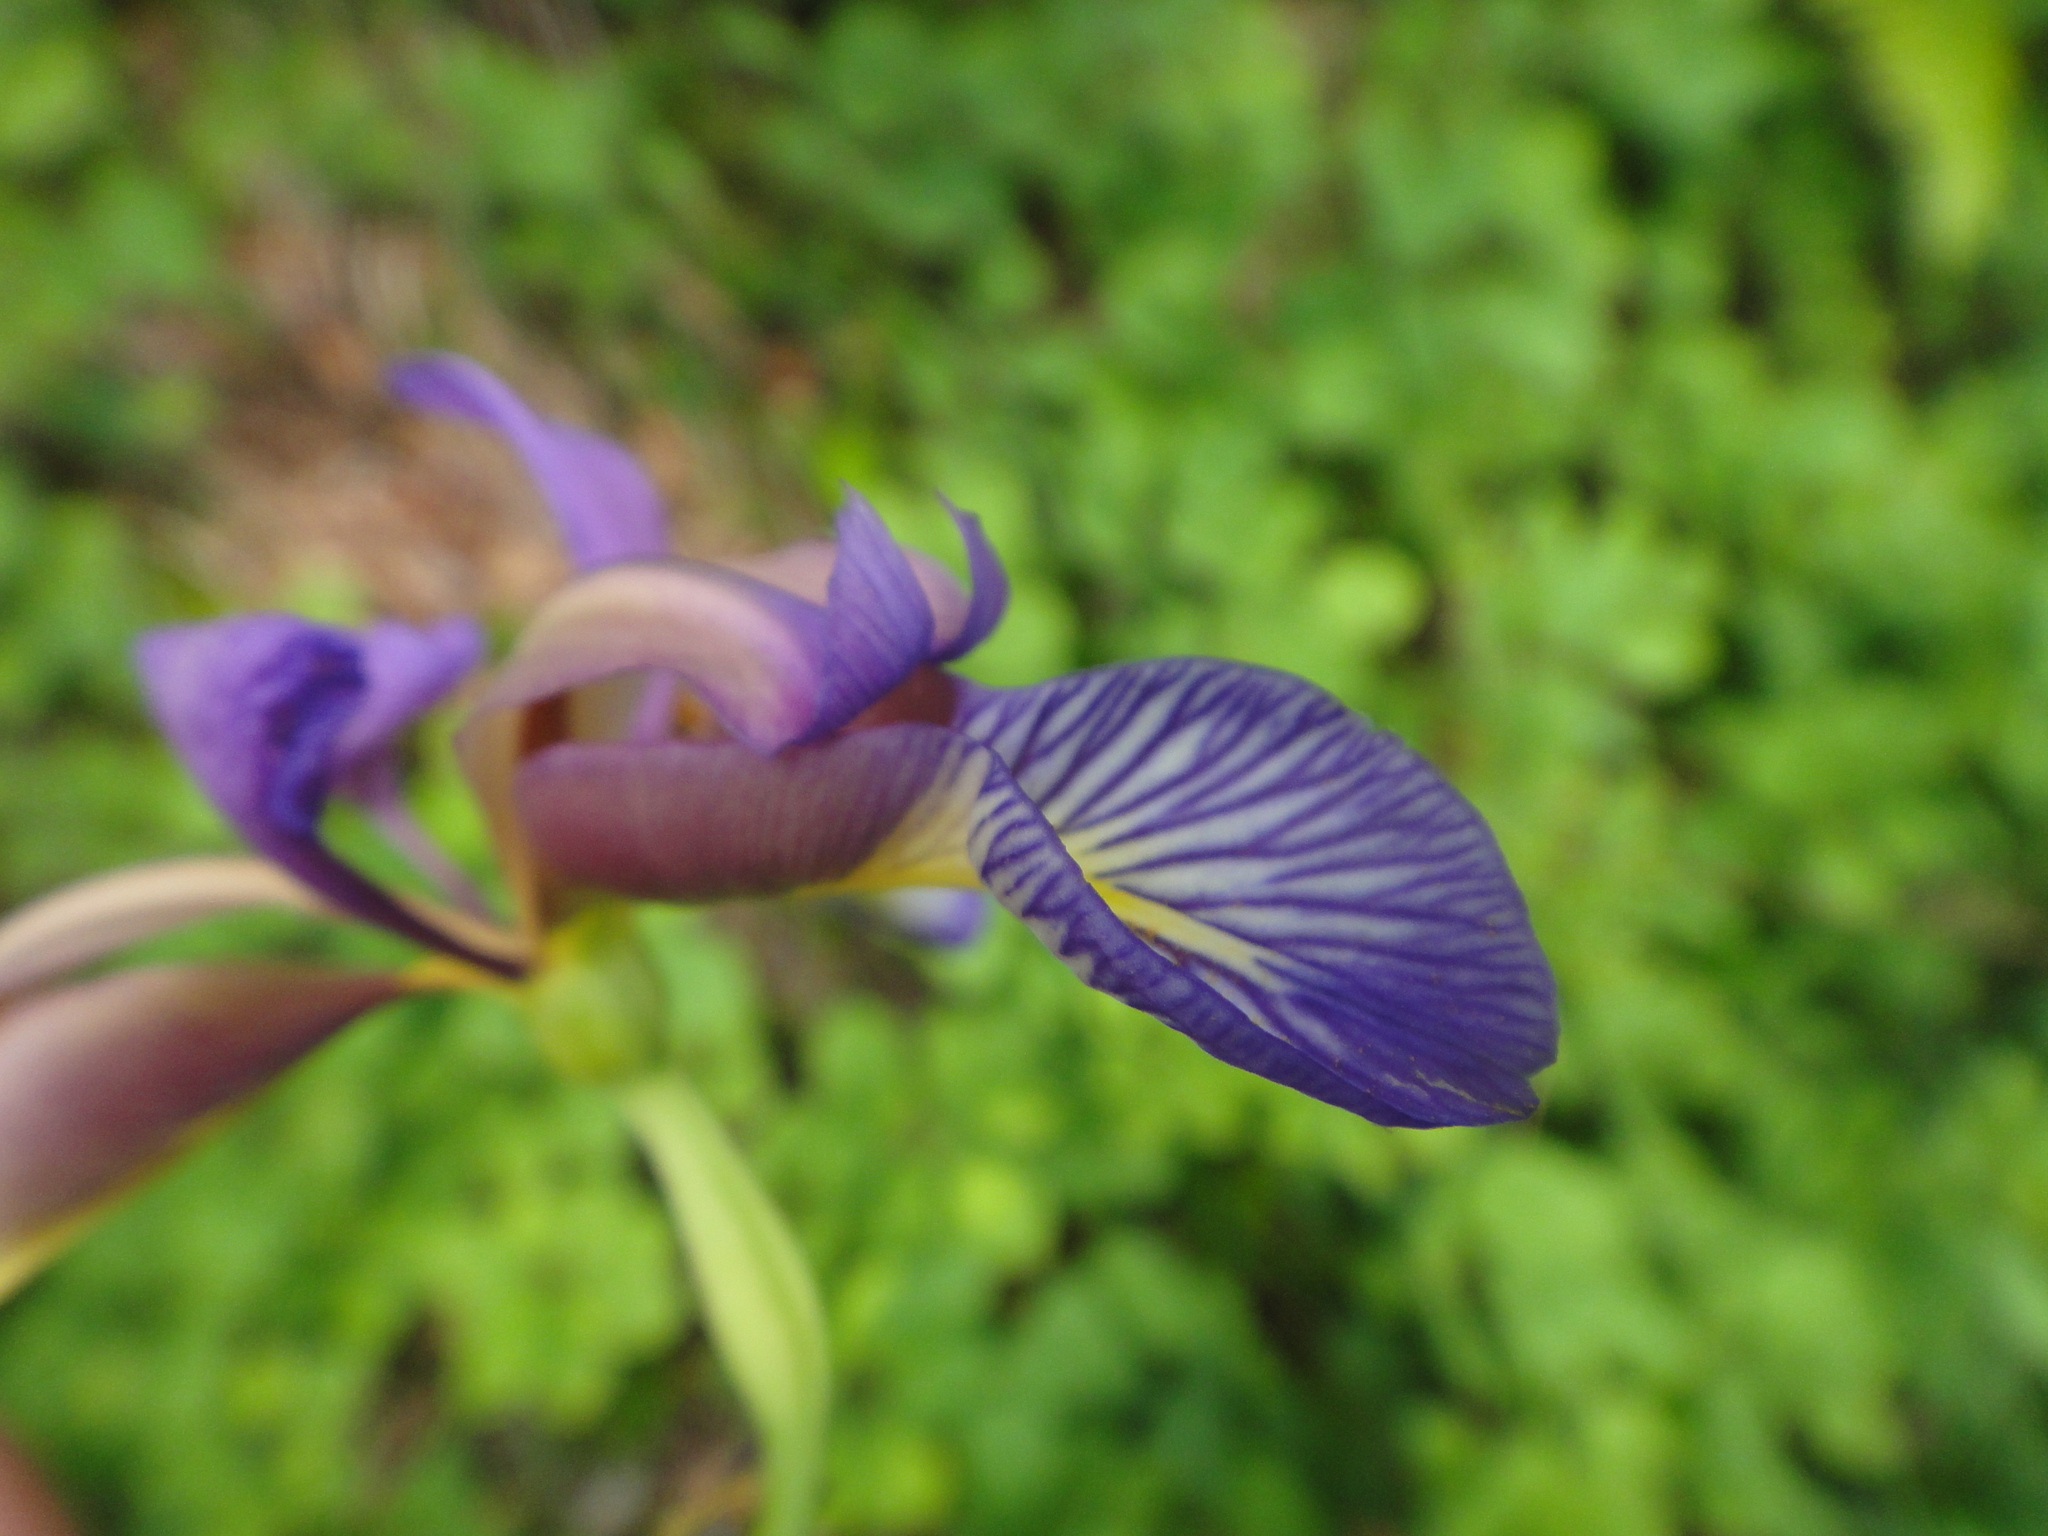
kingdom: Plantae
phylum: Tracheophyta
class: Liliopsida
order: Asparagales
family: Iridaceae
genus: Iris
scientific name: Iris graminea
